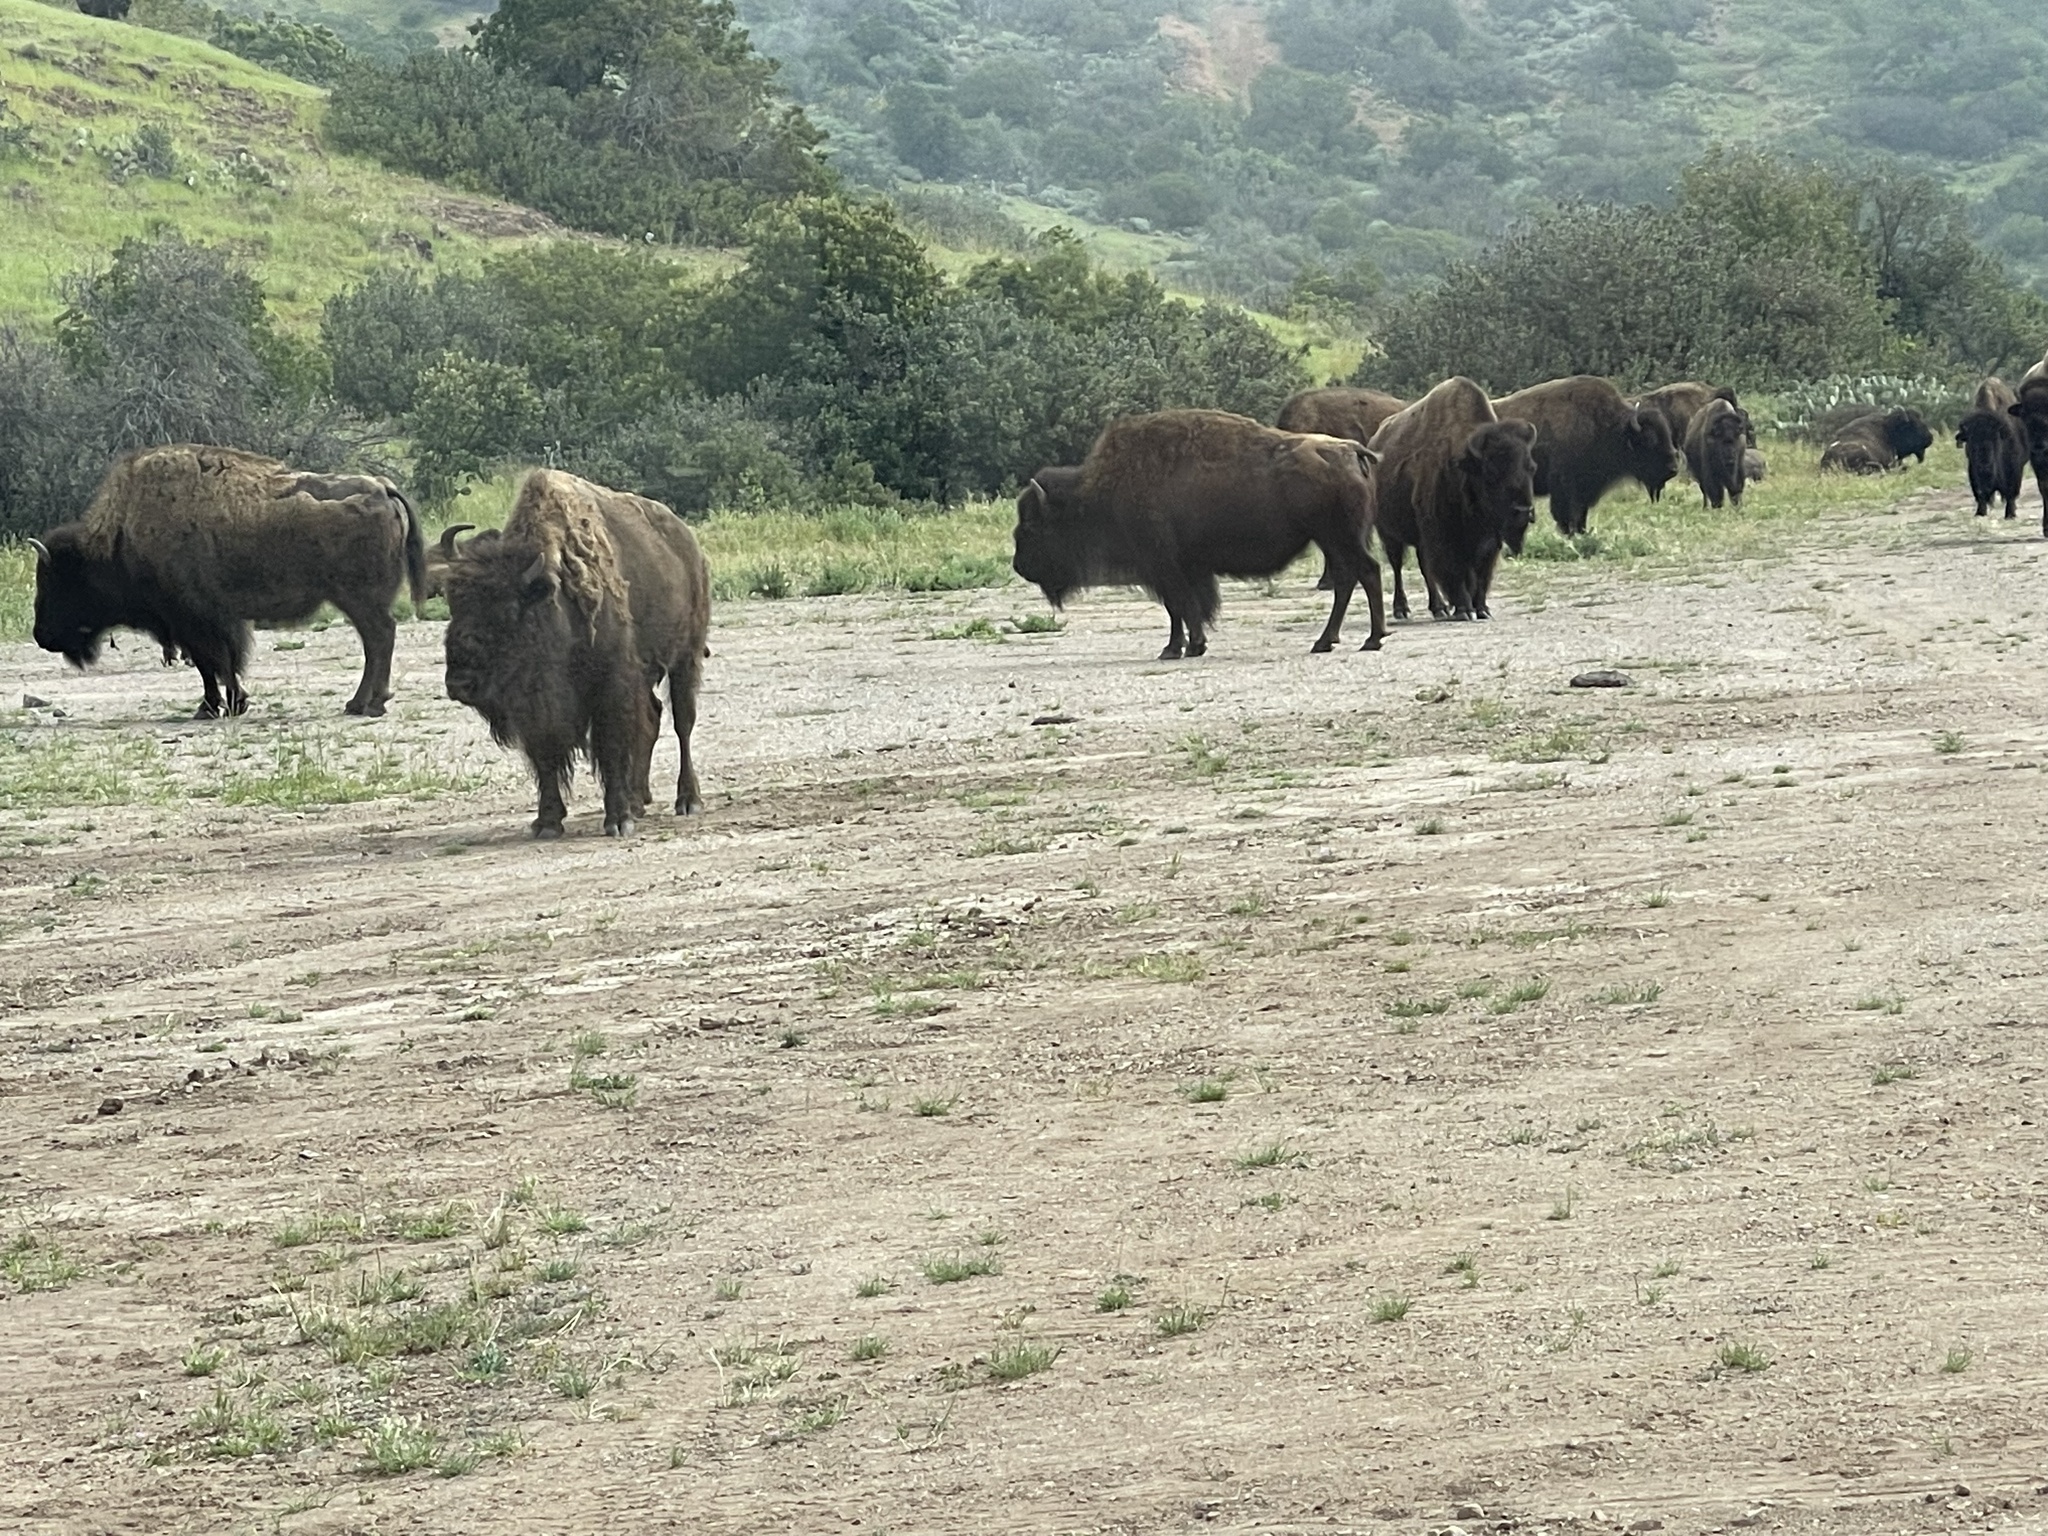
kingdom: Animalia
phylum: Chordata
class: Mammalia
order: Artiodactyla
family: Bovidae
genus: Bison
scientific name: Bison bison
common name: American bison
